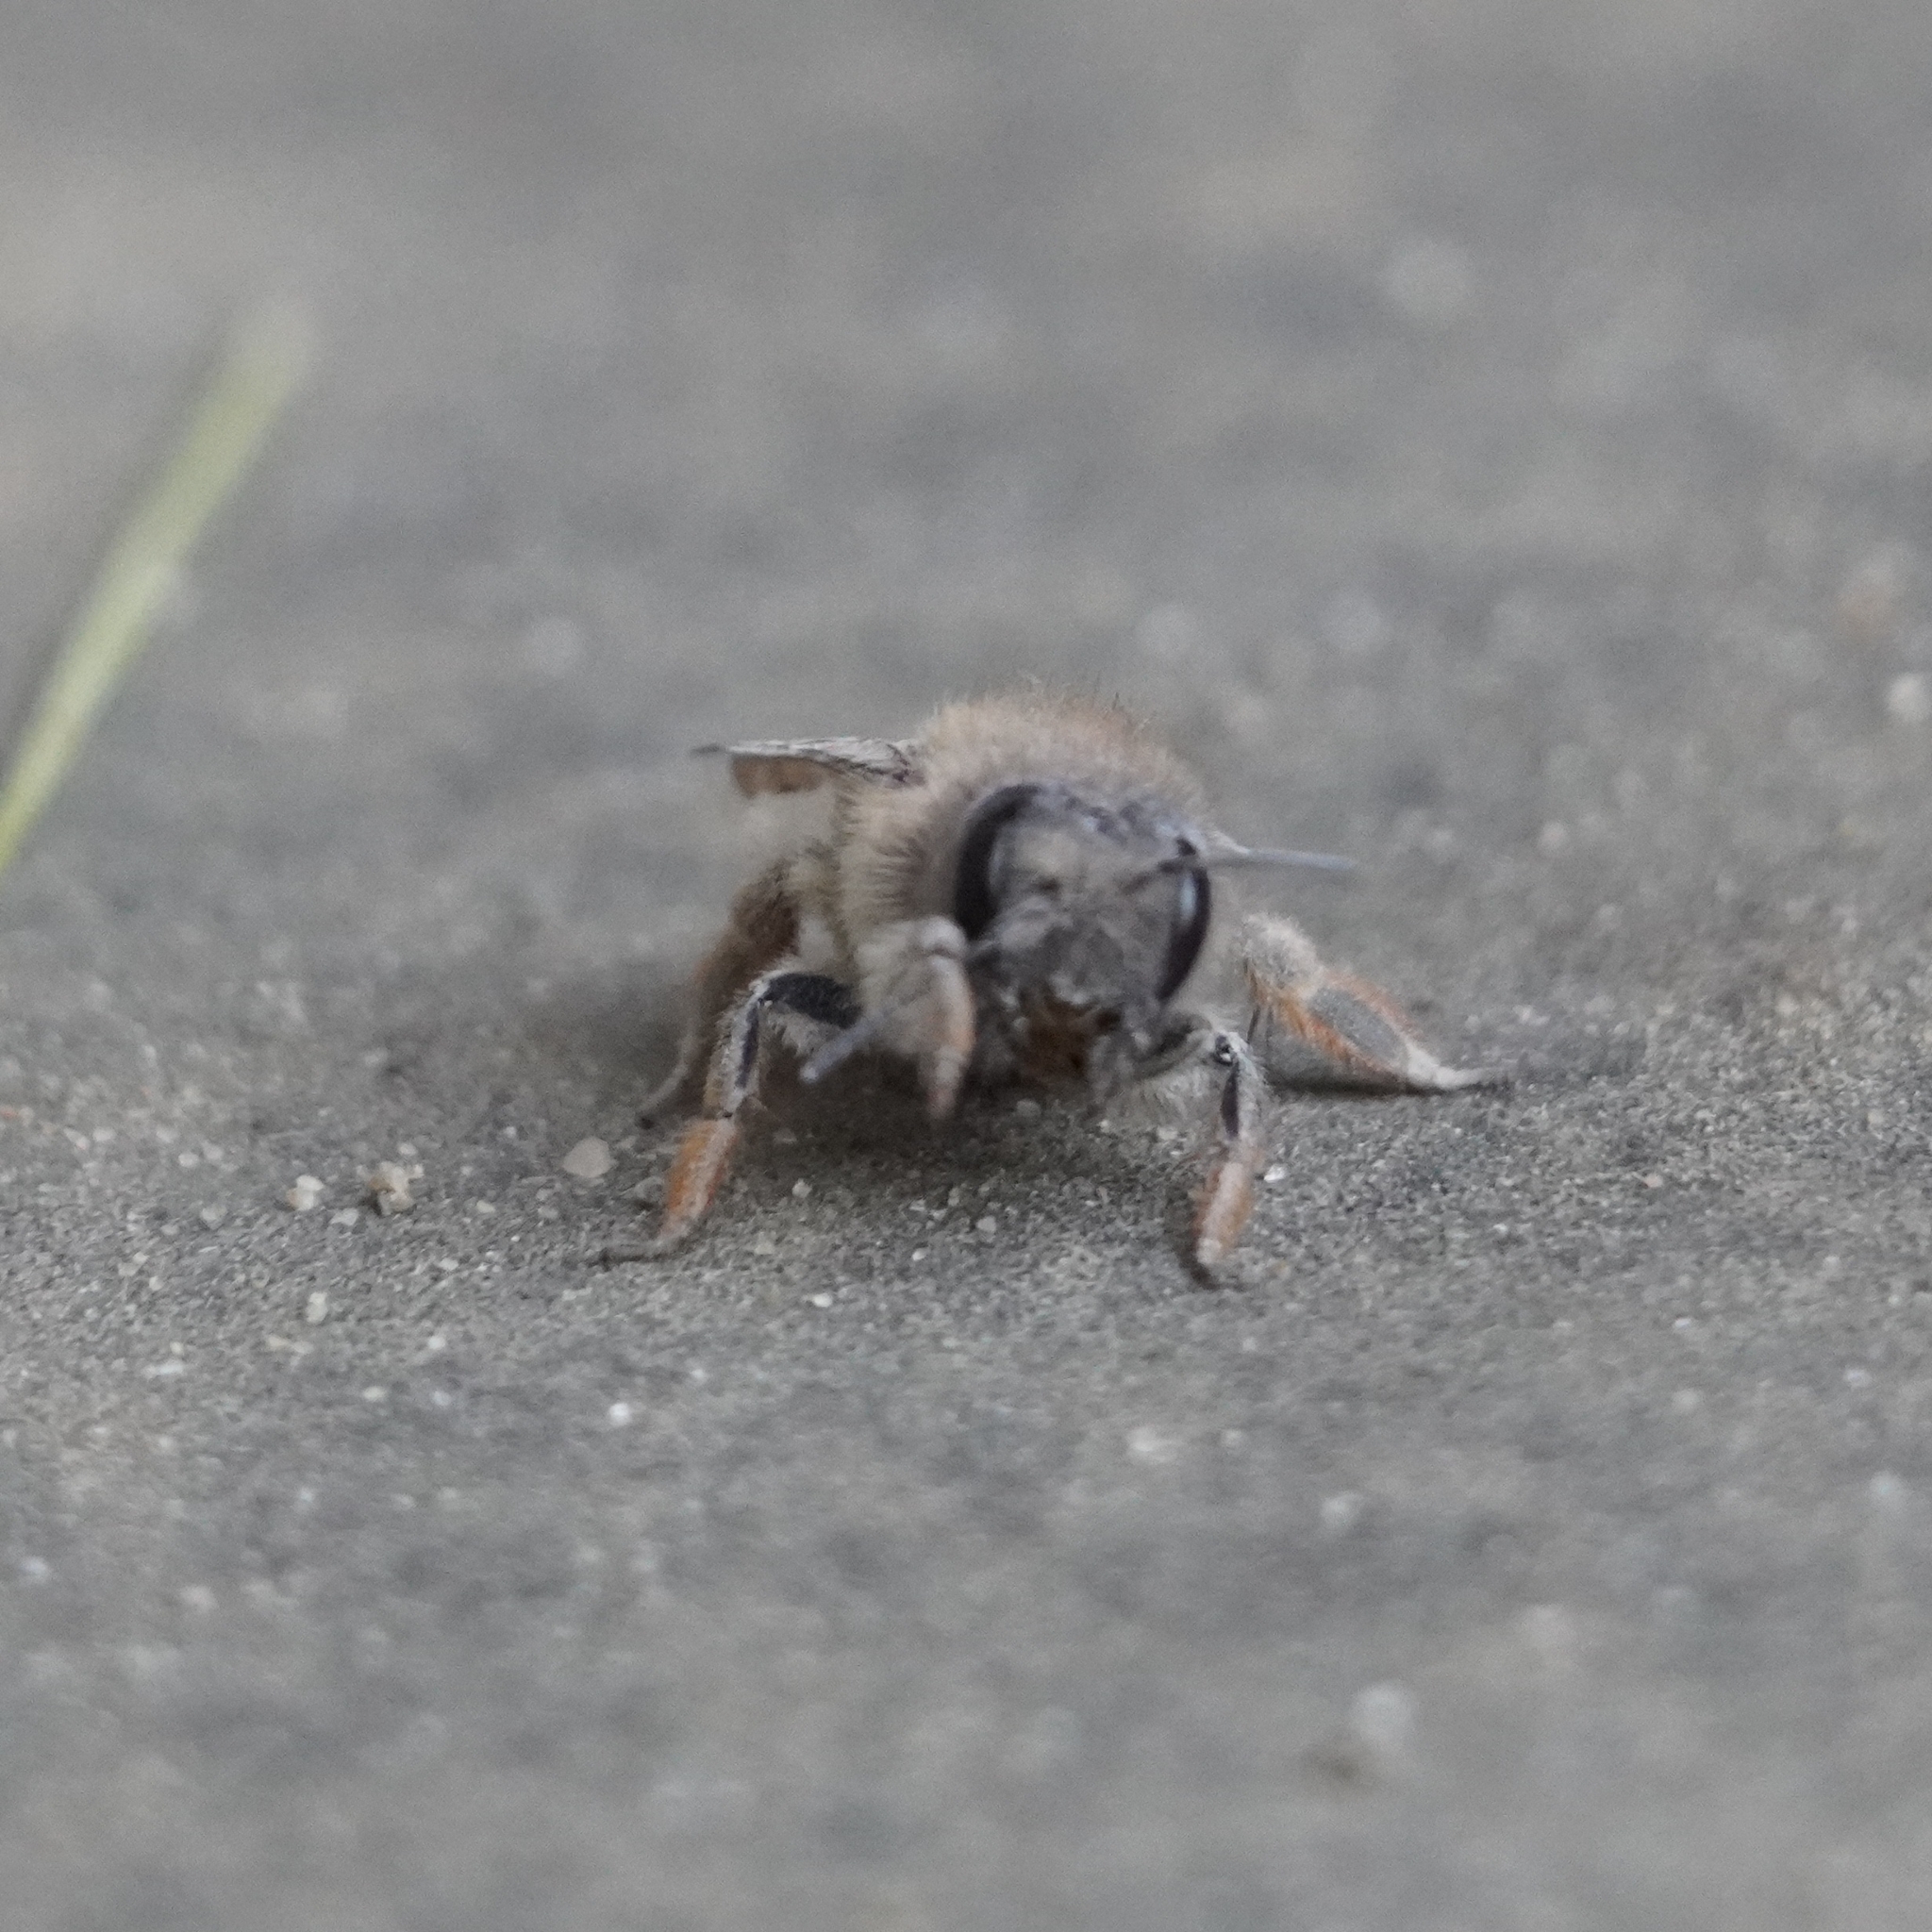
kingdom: Animalia
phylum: Arthropoda
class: Insecta
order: Hymenoptera
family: Megachilidae
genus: Osmia
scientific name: Osmia bicornis
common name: Red mason bee
